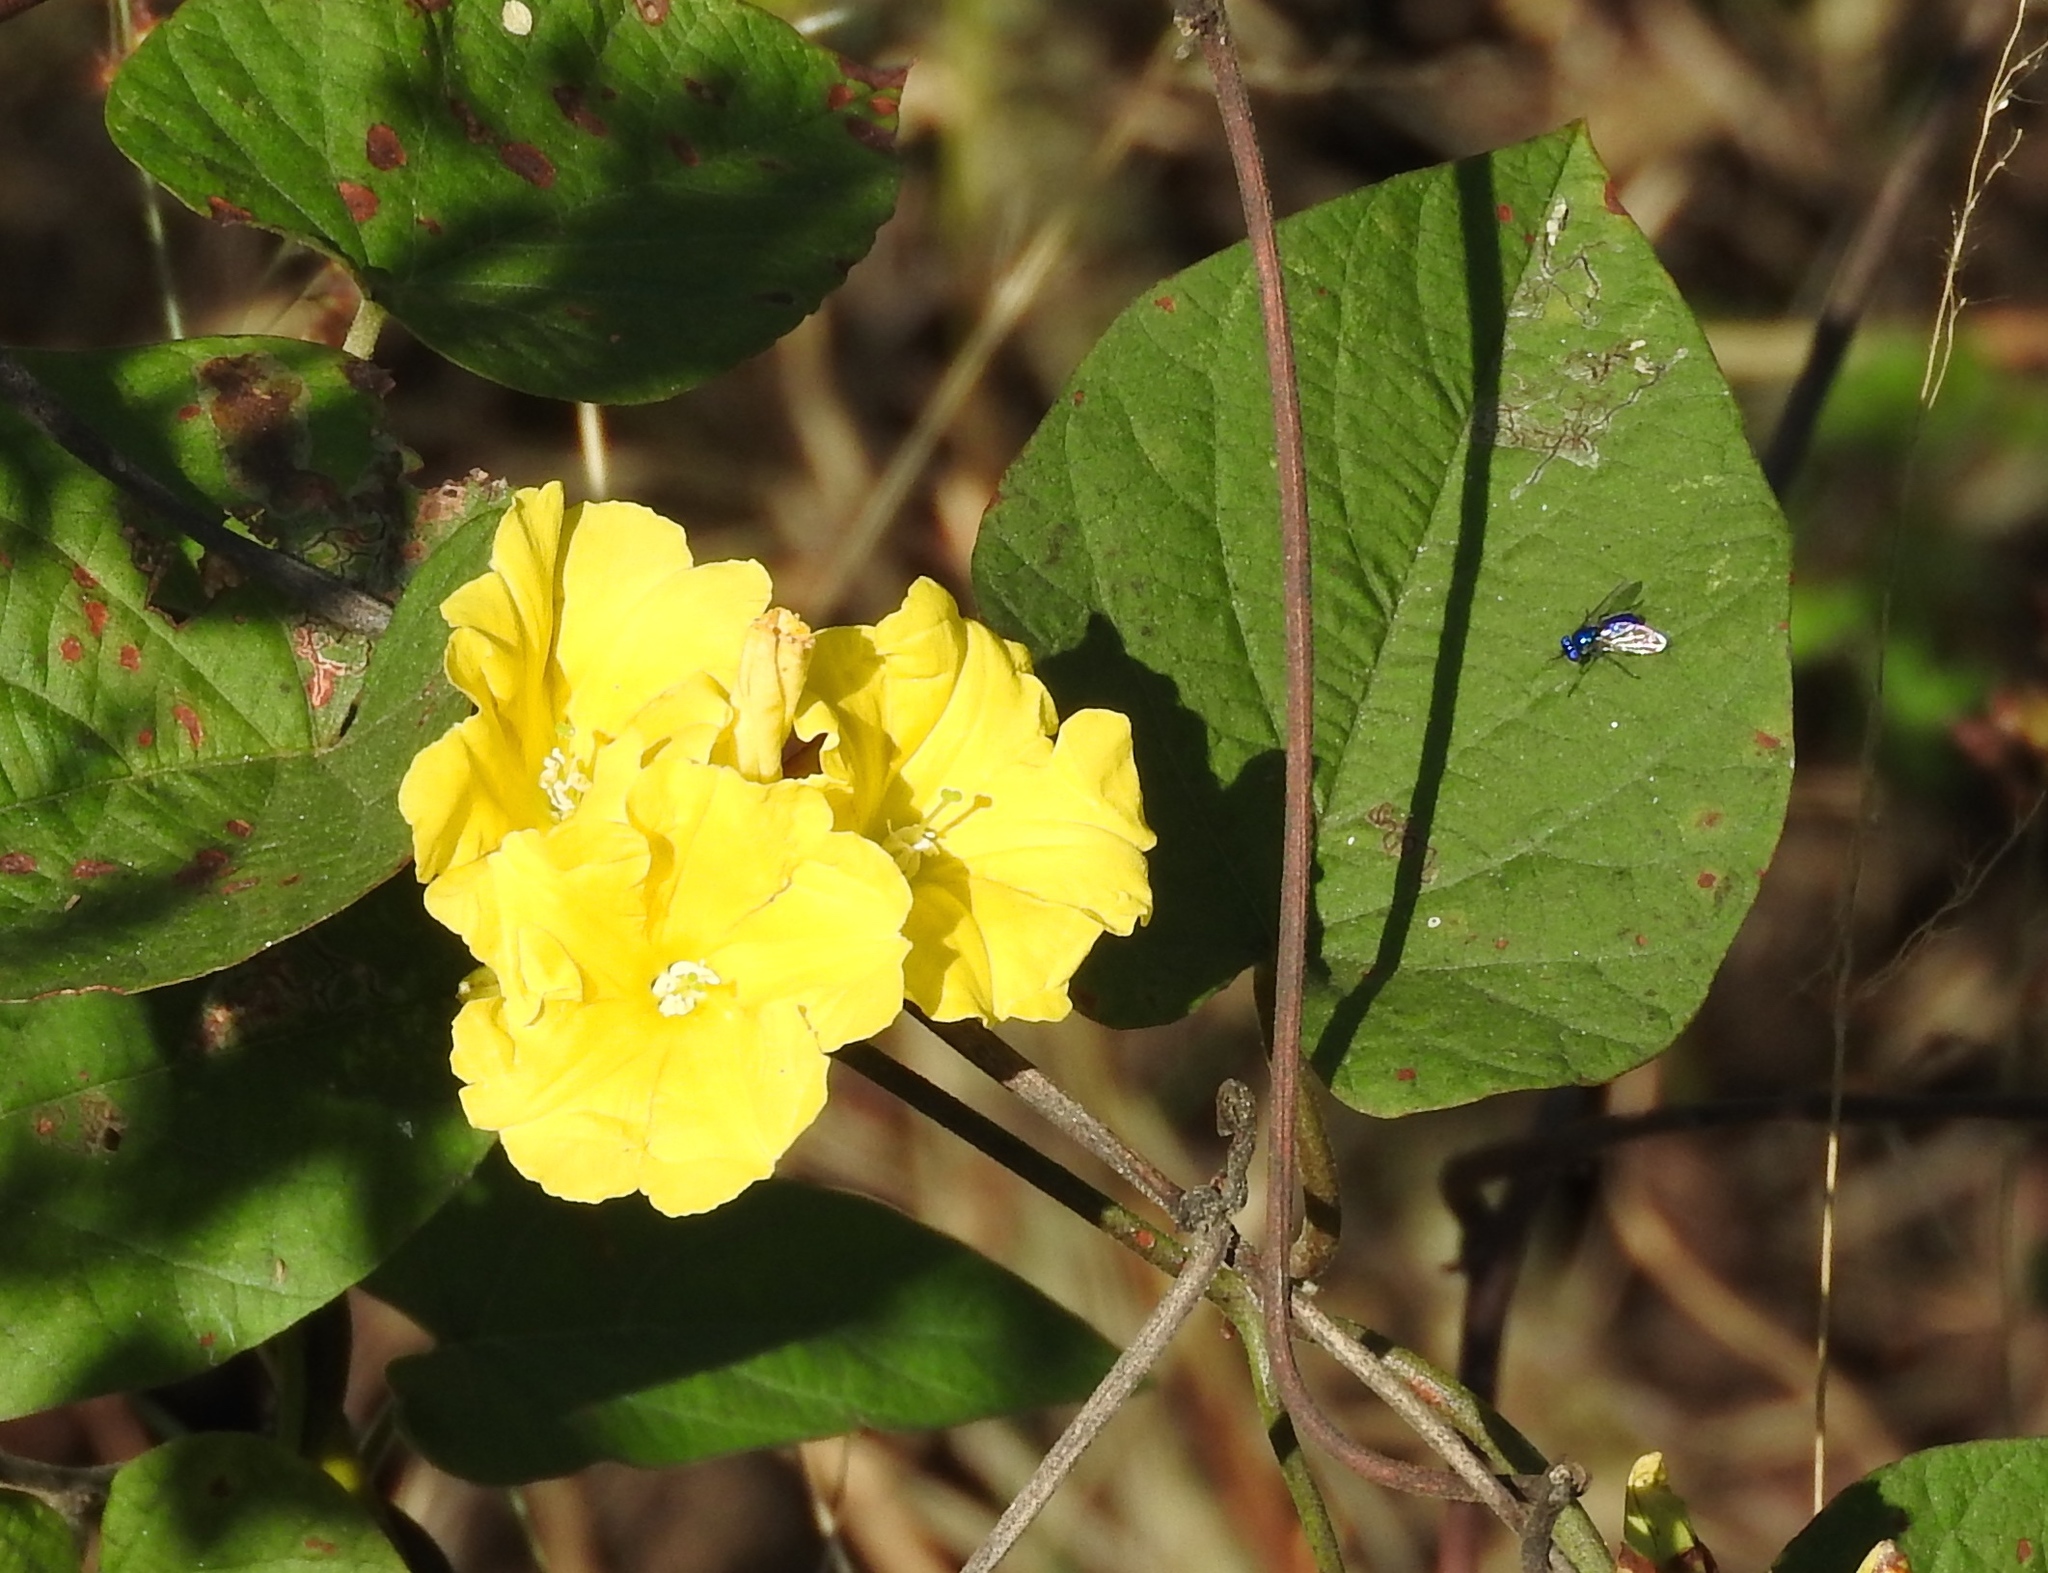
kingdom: Plantae
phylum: Tracheophyta
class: Magnoliopsida
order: Solanales
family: Convolvulaceae
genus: Camonea
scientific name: Camonea umbellata
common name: Hogvine
